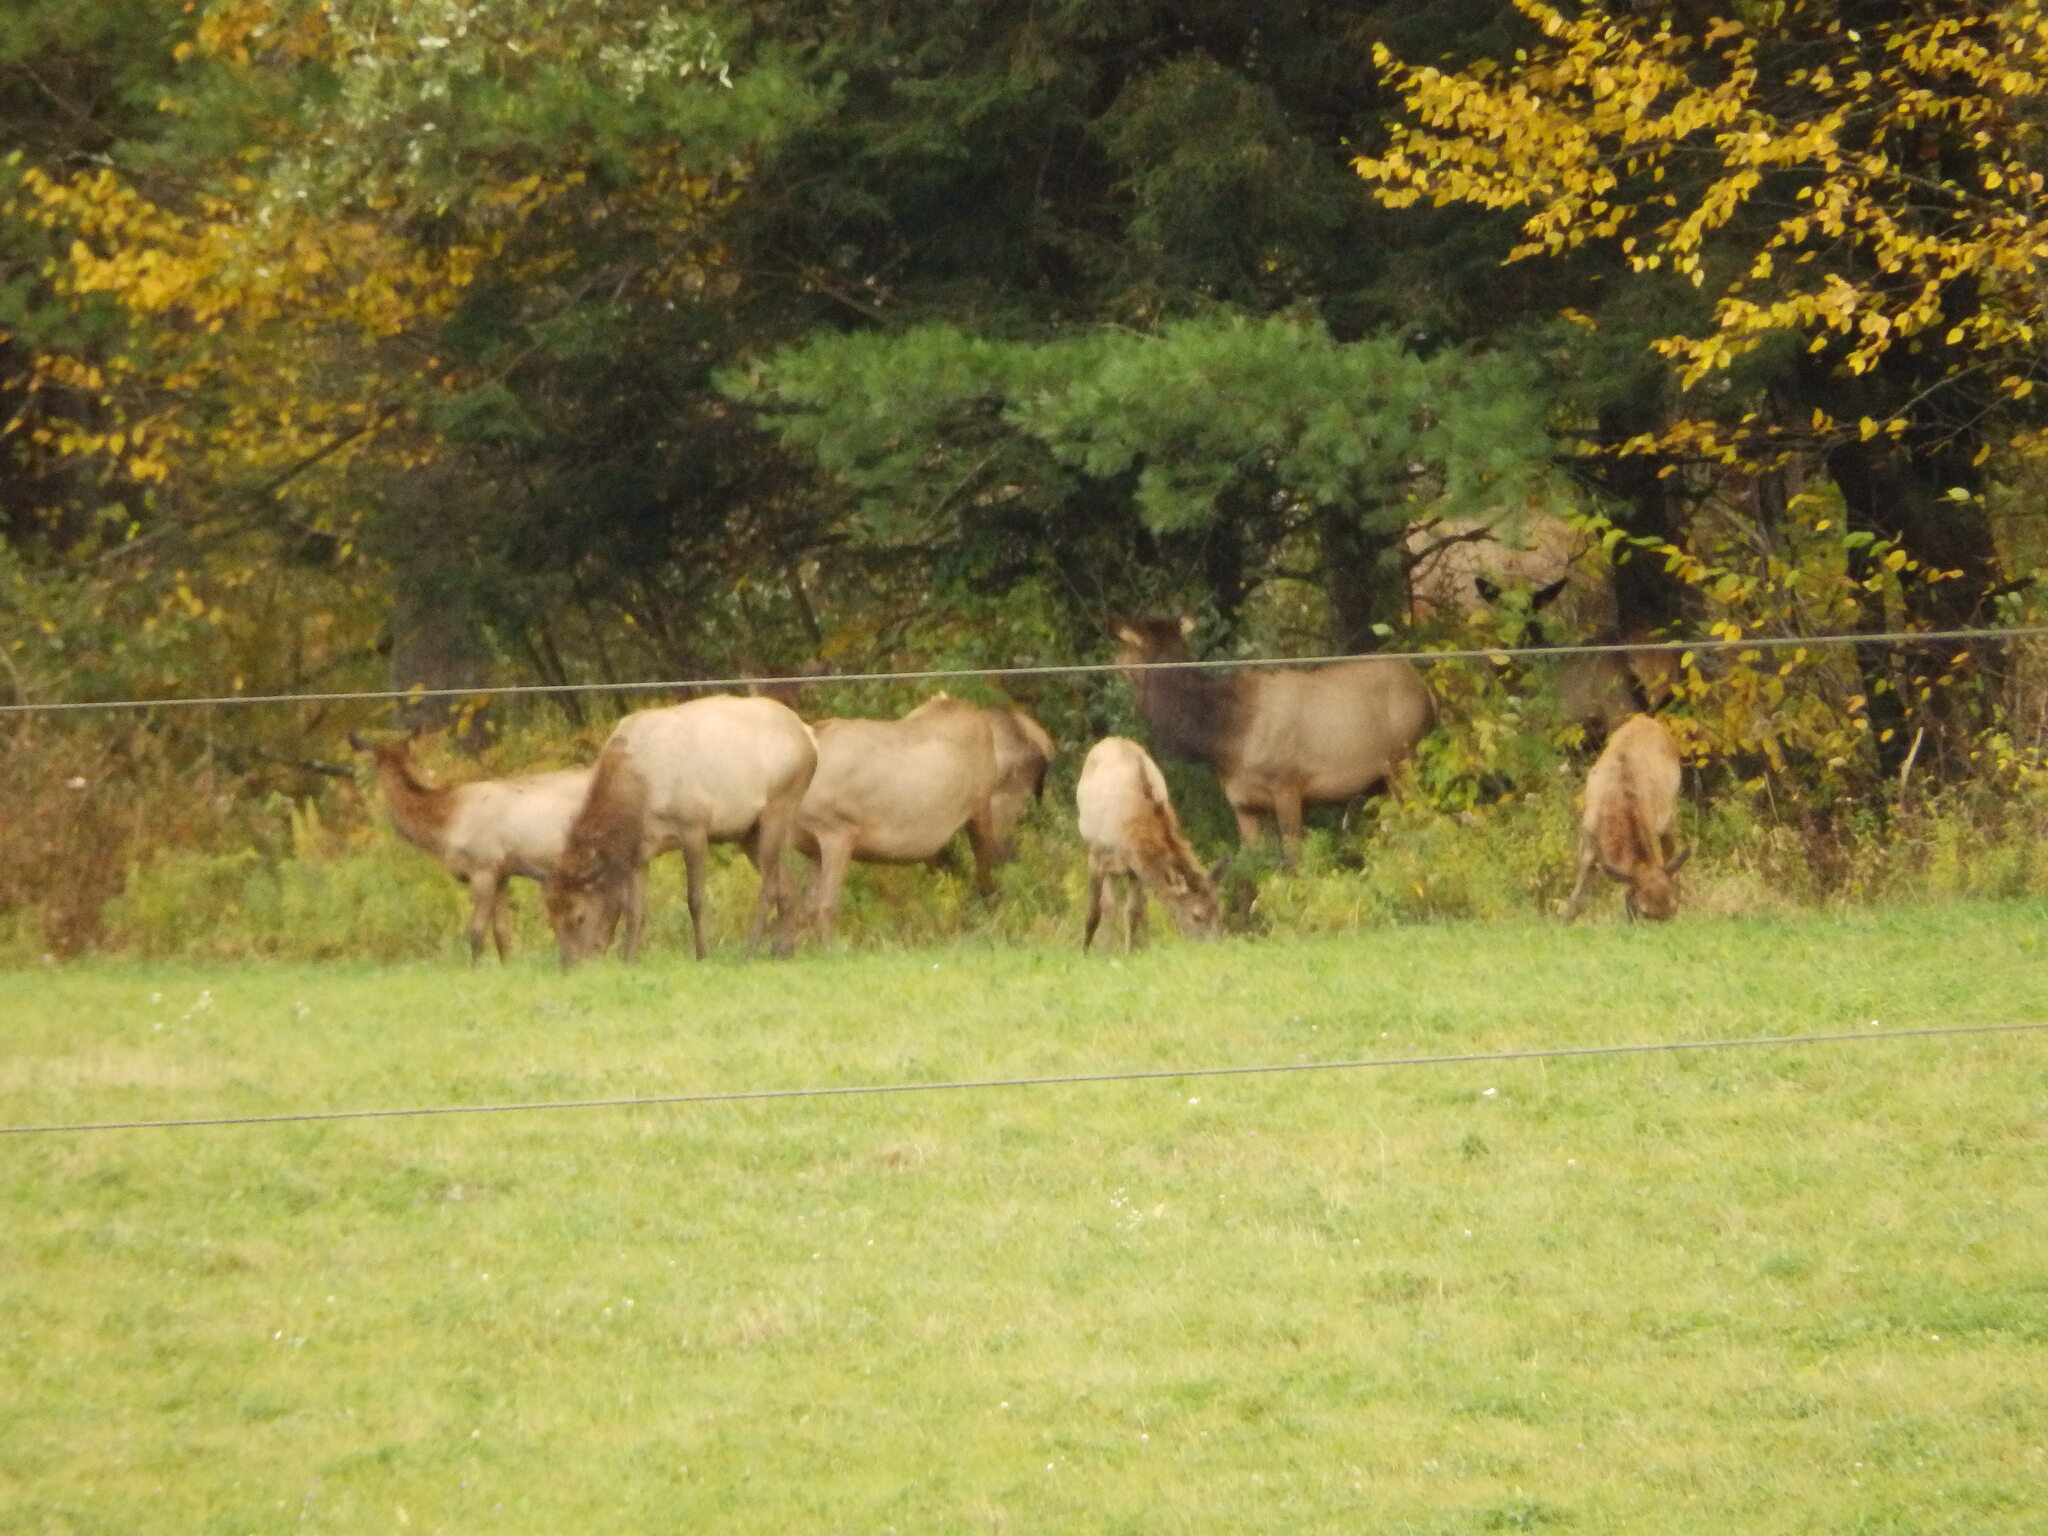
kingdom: Animalia
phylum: Chordata
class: Mammalia
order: Artiodactyla
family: Cervidae
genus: Cervus
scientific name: Cervus elaphus
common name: Red deer
